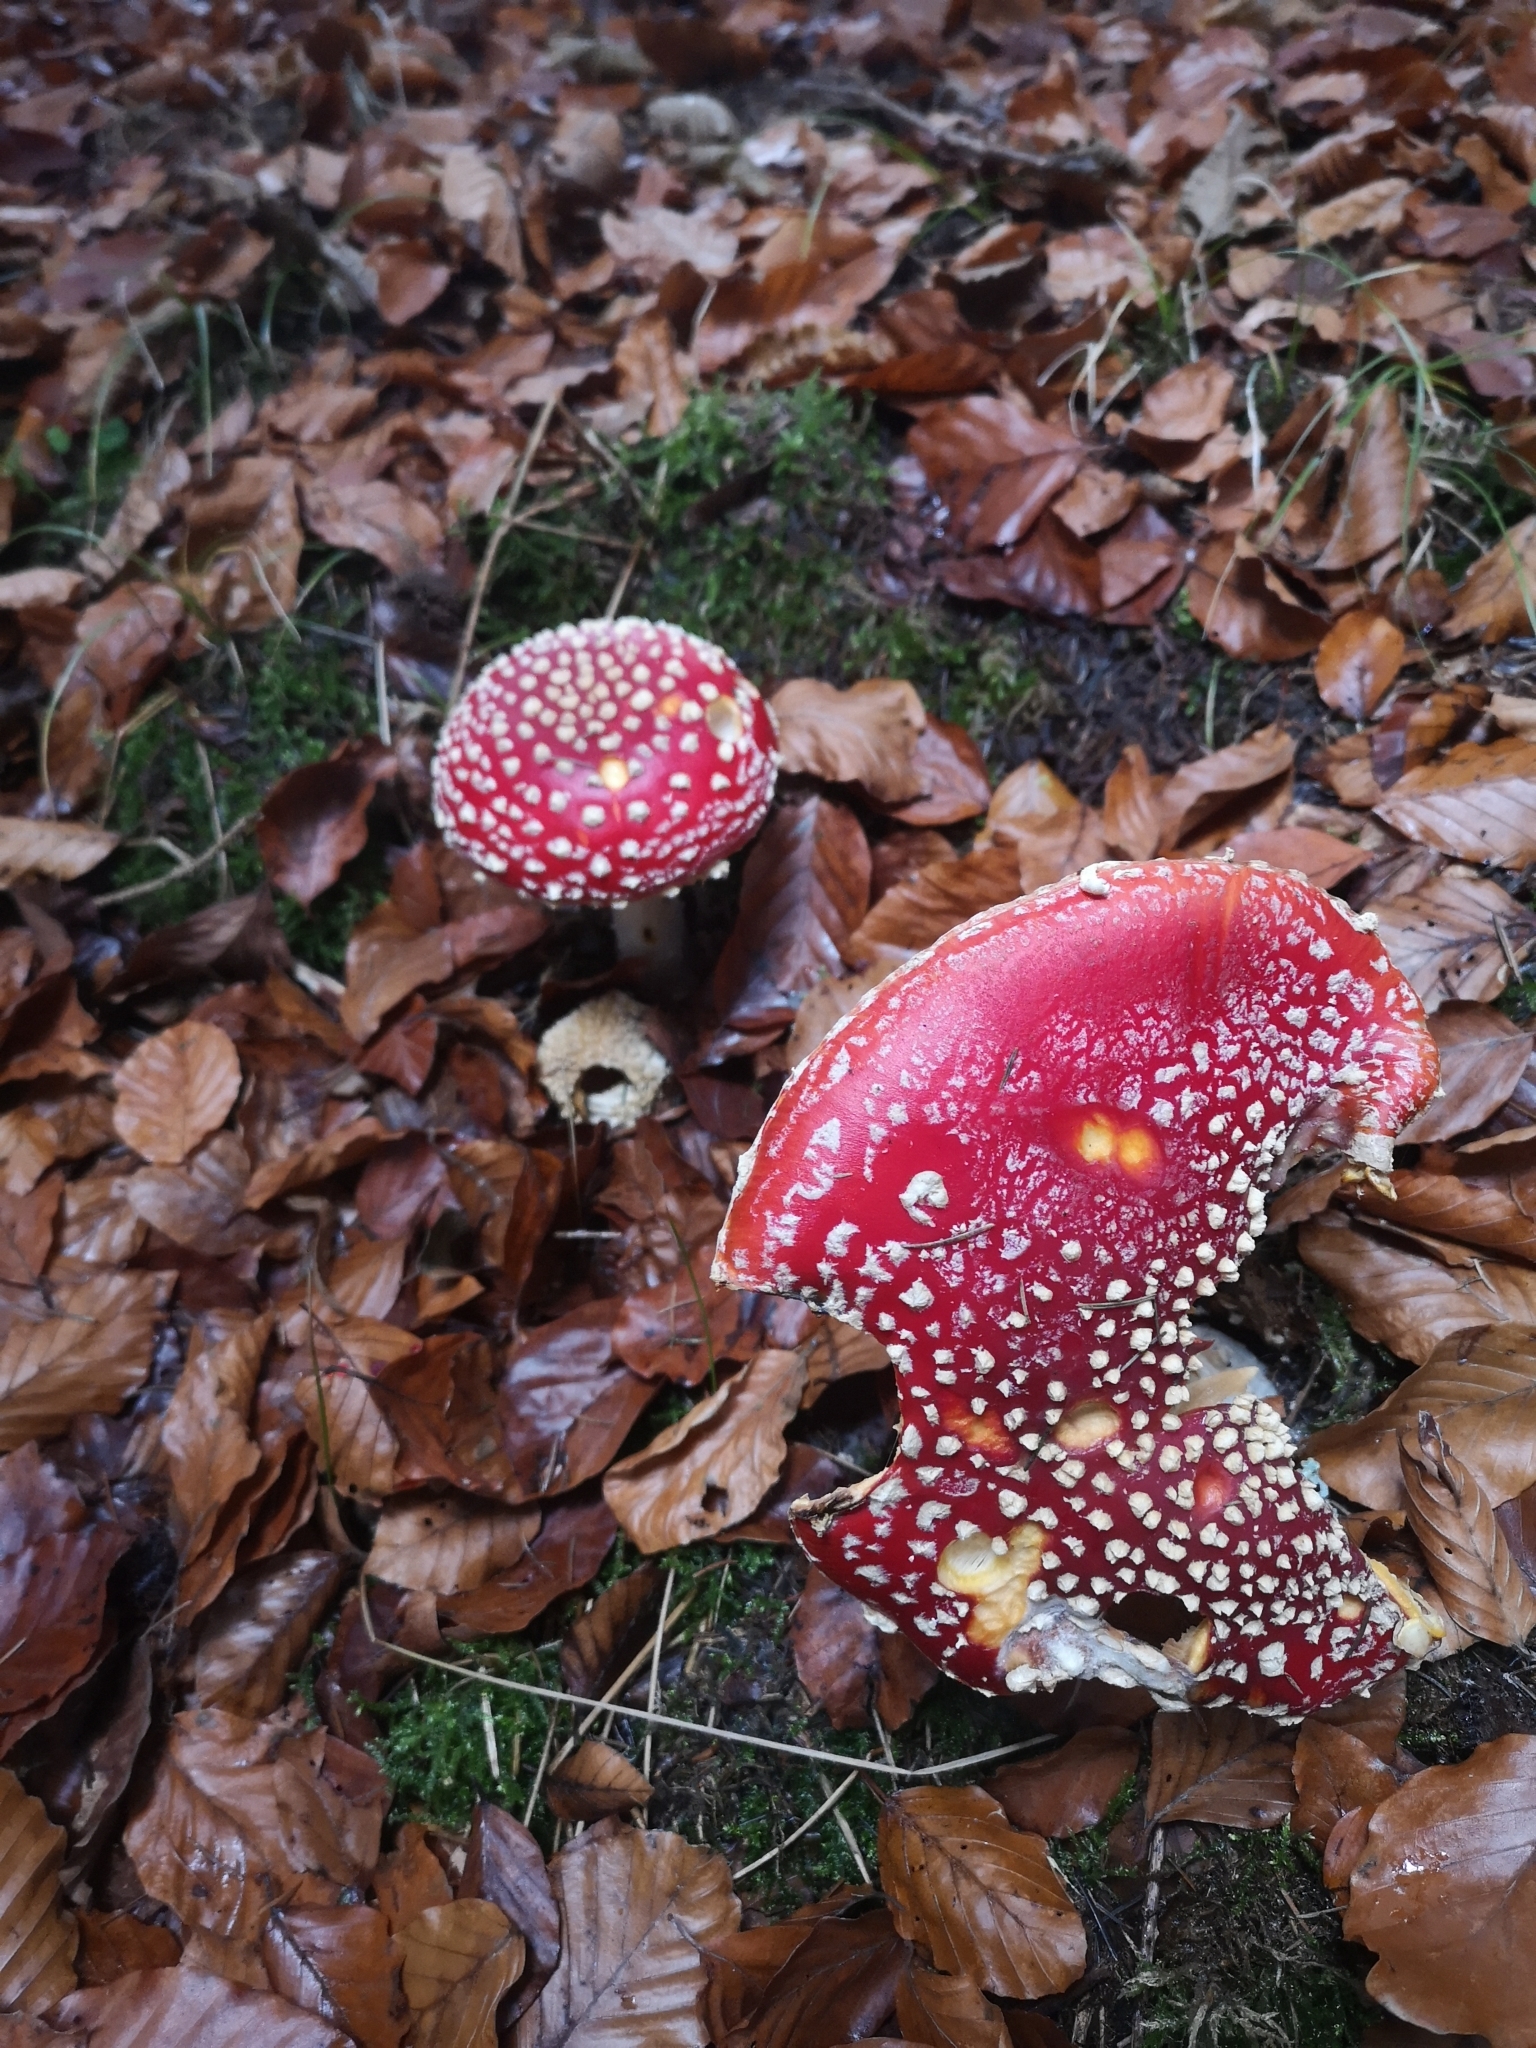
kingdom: Fungi
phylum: Basidiomycota
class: Agaricomycetes
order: Agaricales
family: Amanitaceae
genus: Amanita
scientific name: Amanita muscaria
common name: Fly agaric
